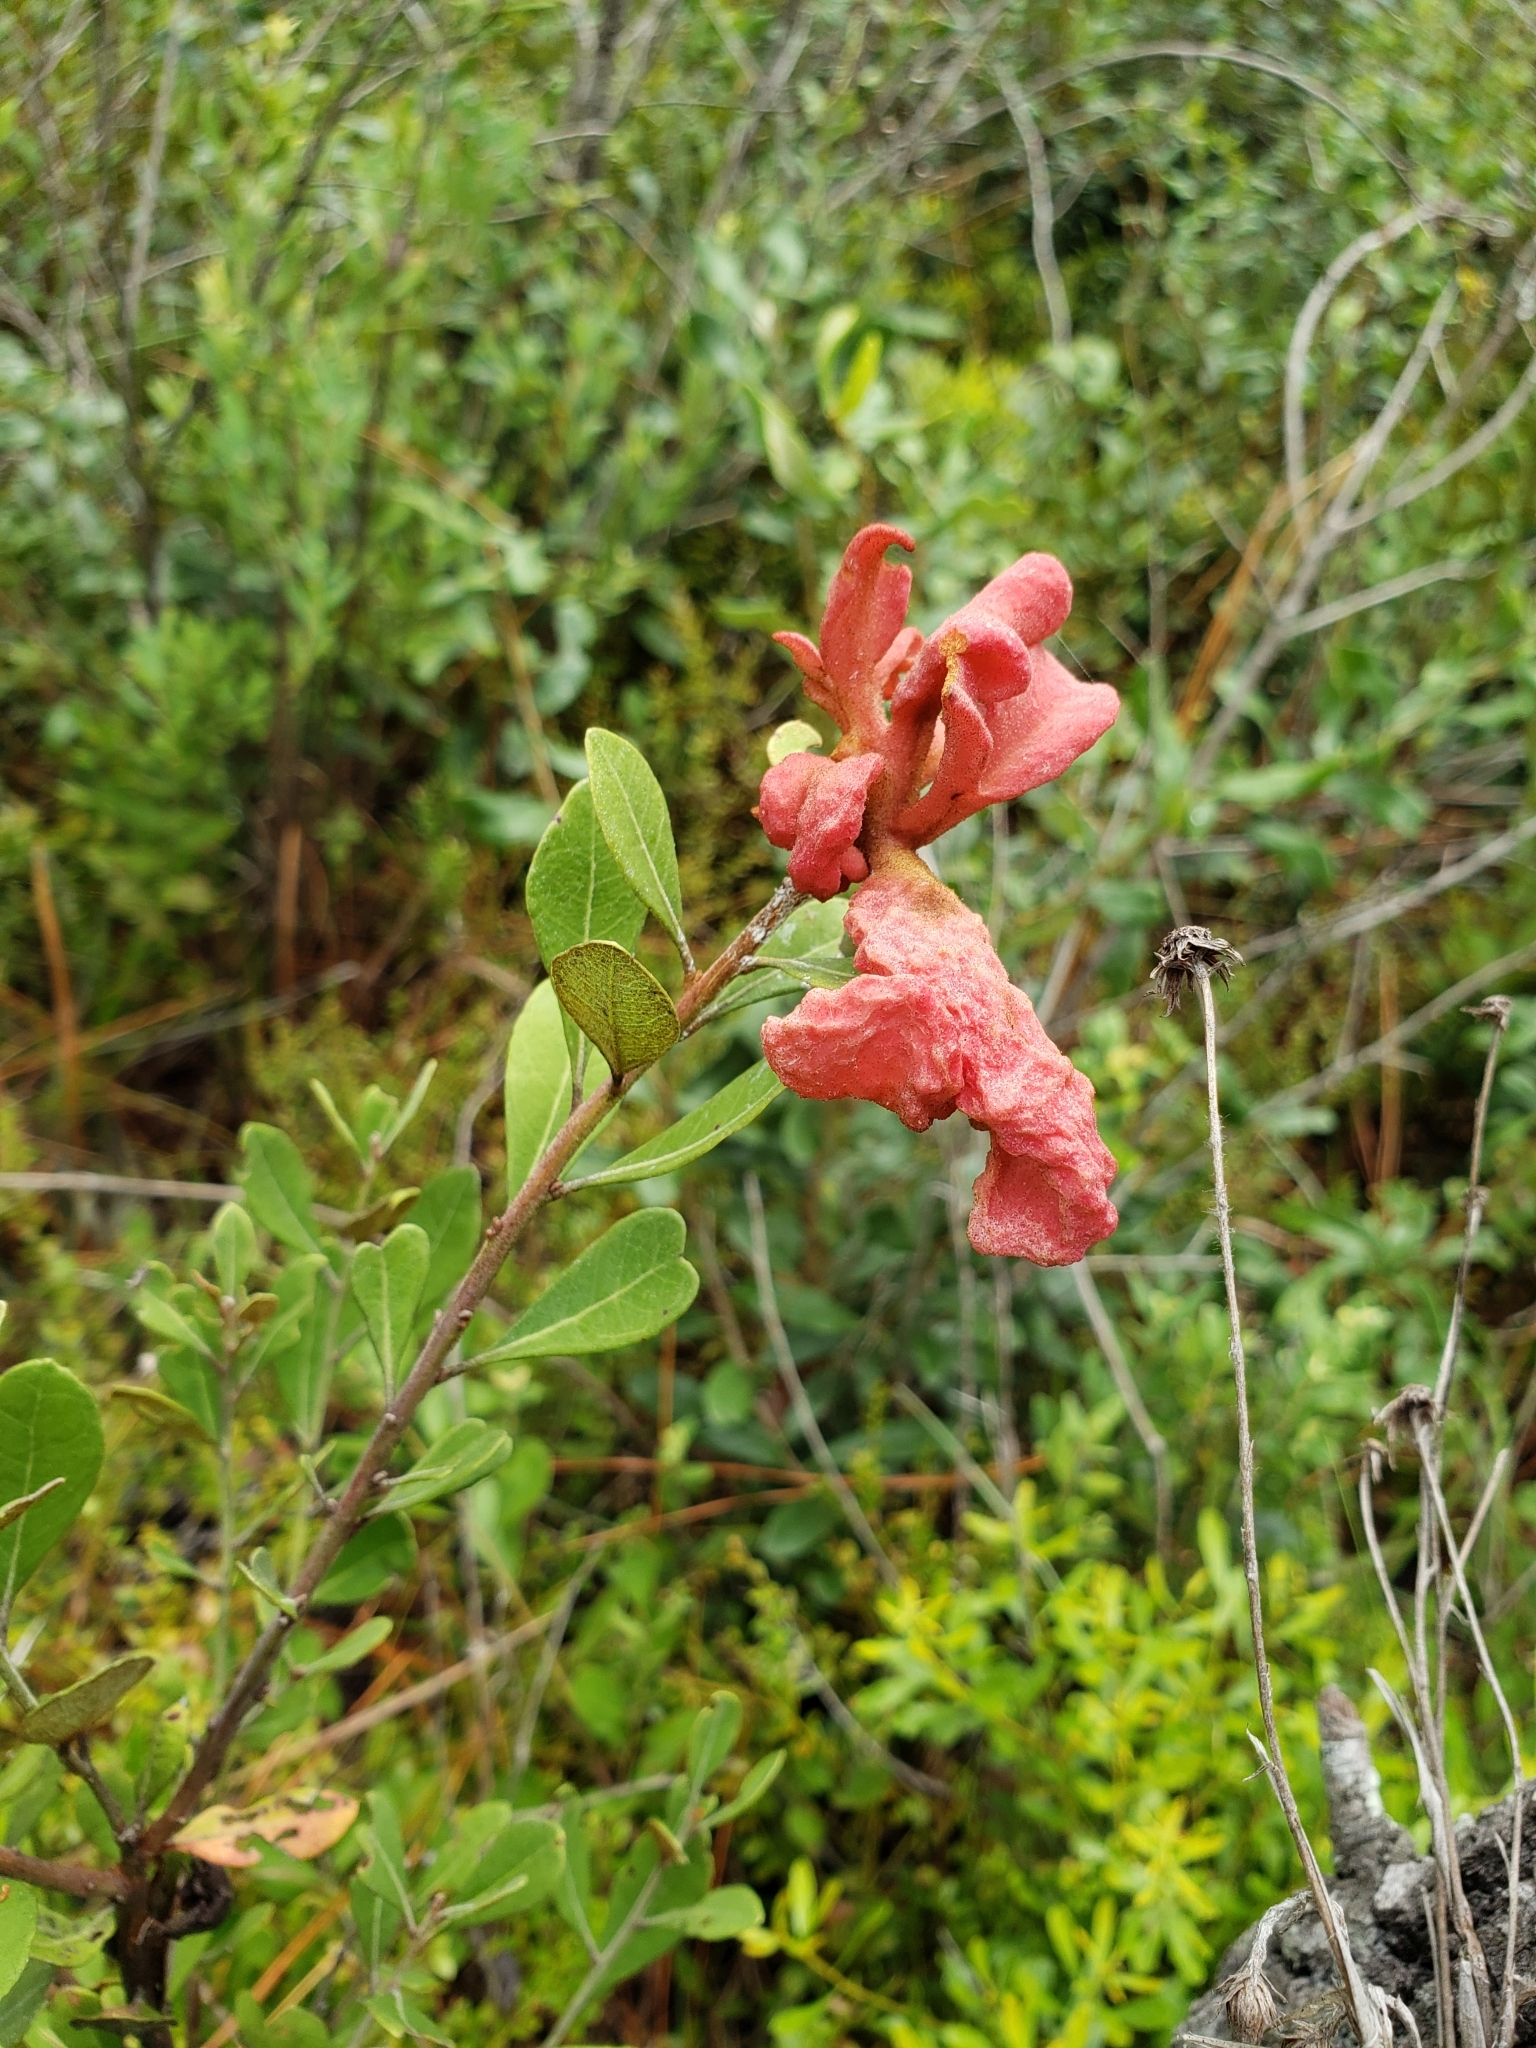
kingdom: Fungi
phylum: Basidiomycota
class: Exobasidiomycetes
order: Exobasidiales
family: Exobasidiaceae
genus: Exobasidium
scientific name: Exobasidium ferrugineae
